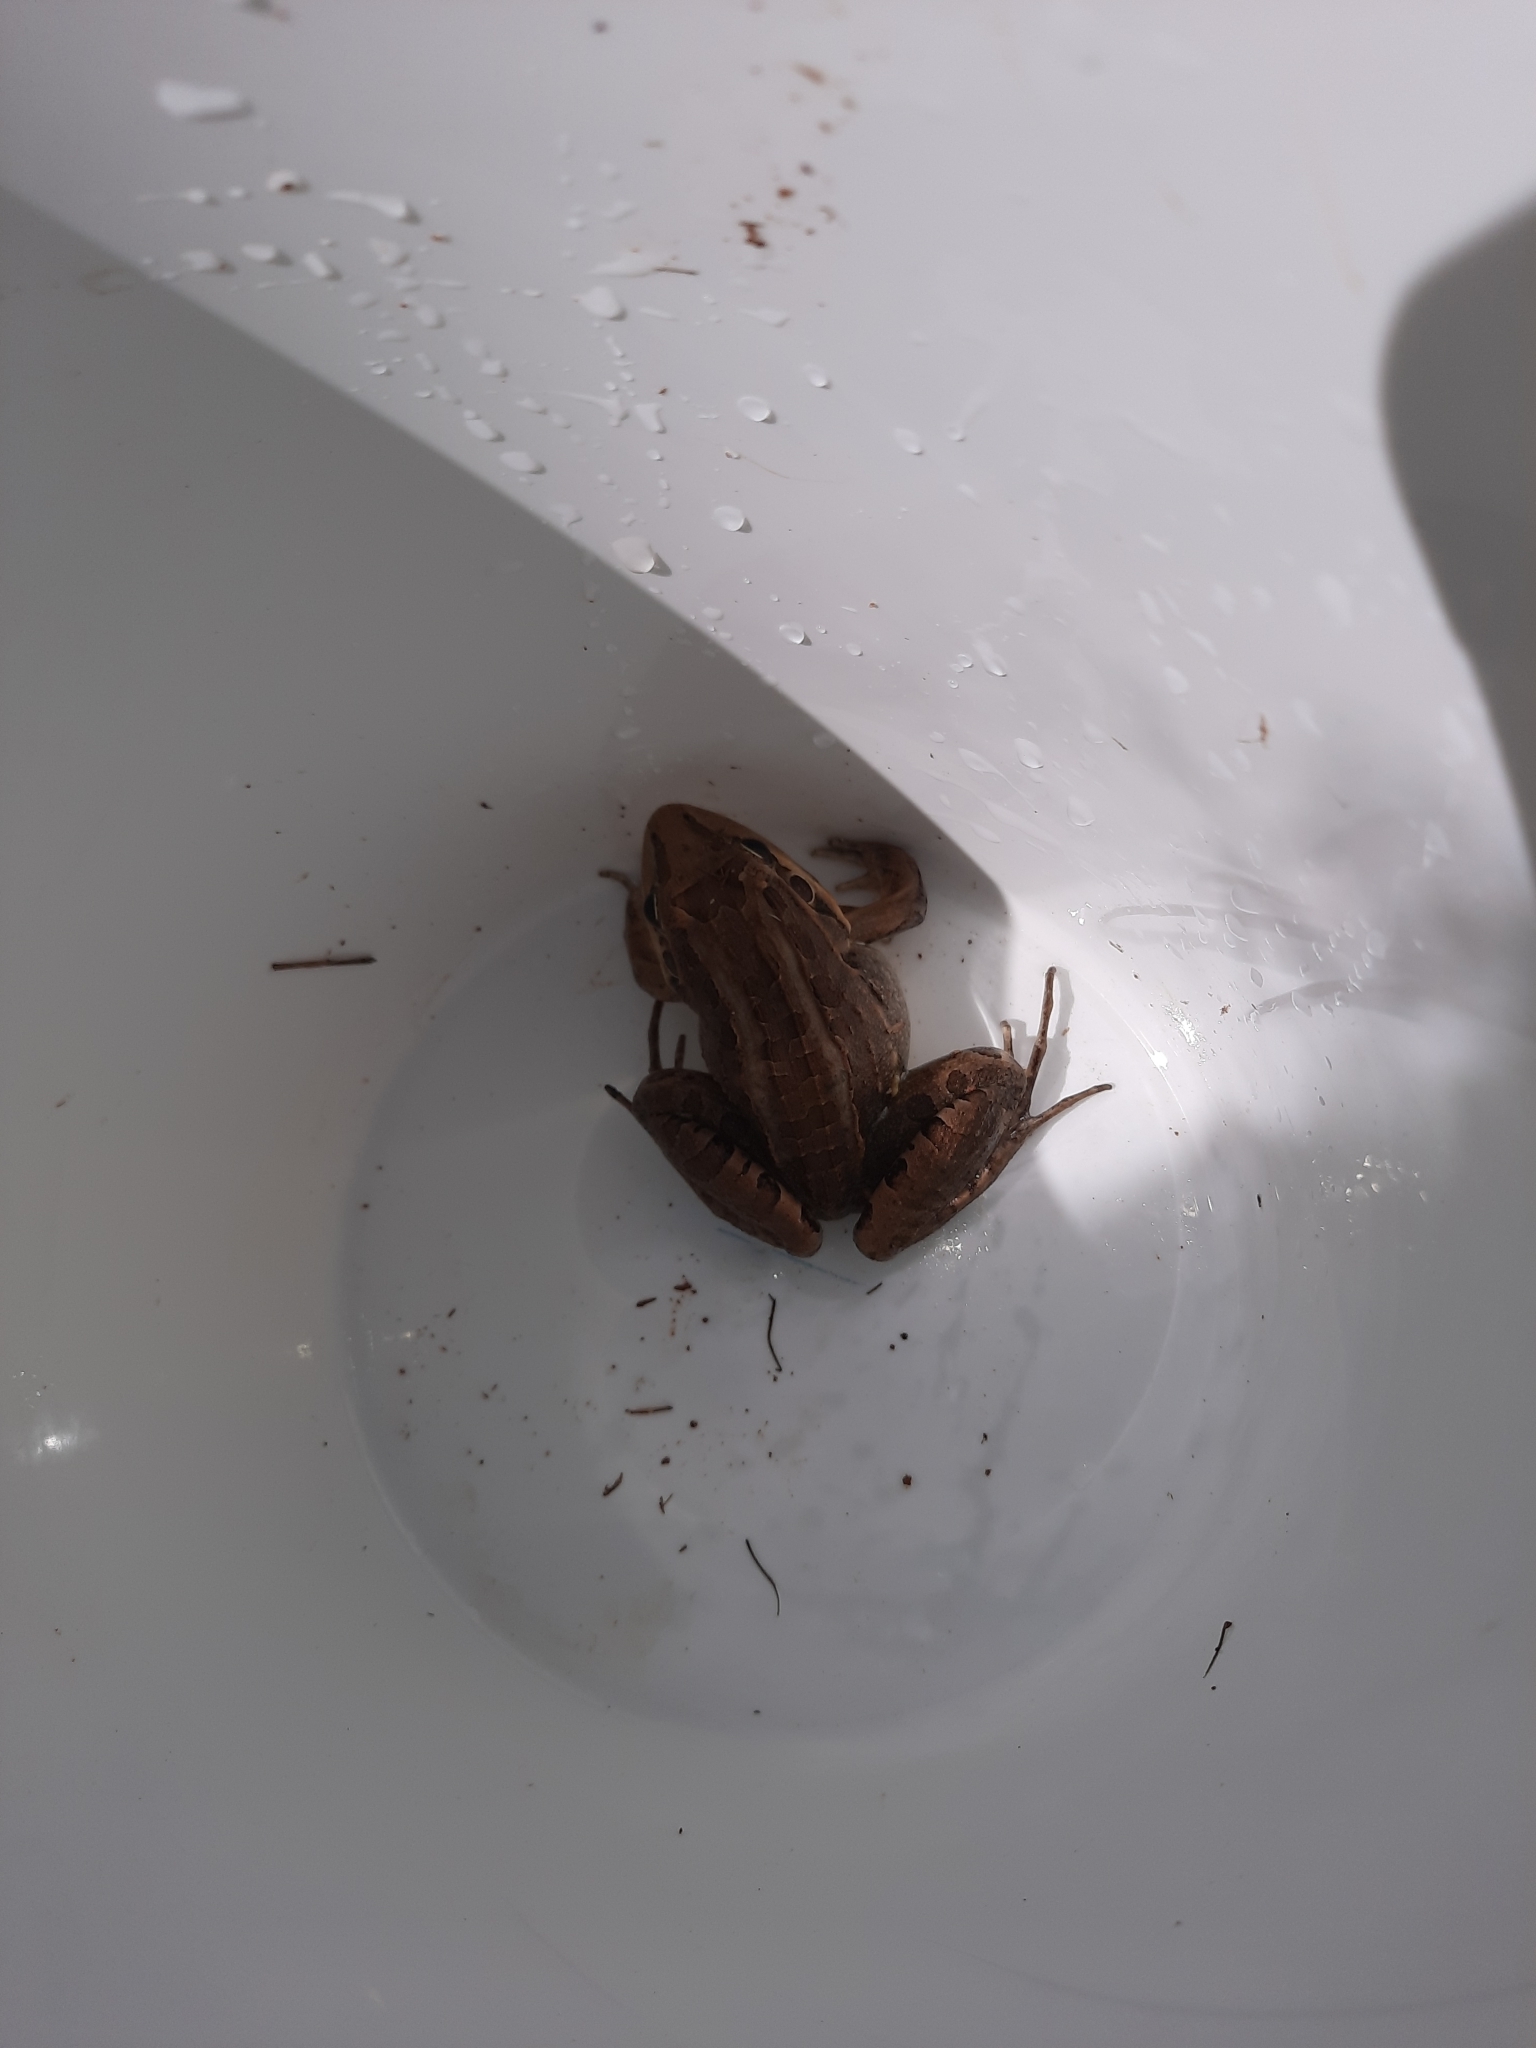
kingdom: Animalia
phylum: Chordata
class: Amphibia
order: Anura
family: Leptodactylidae
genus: Leptodactylus
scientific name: Leptodactylus latrans
